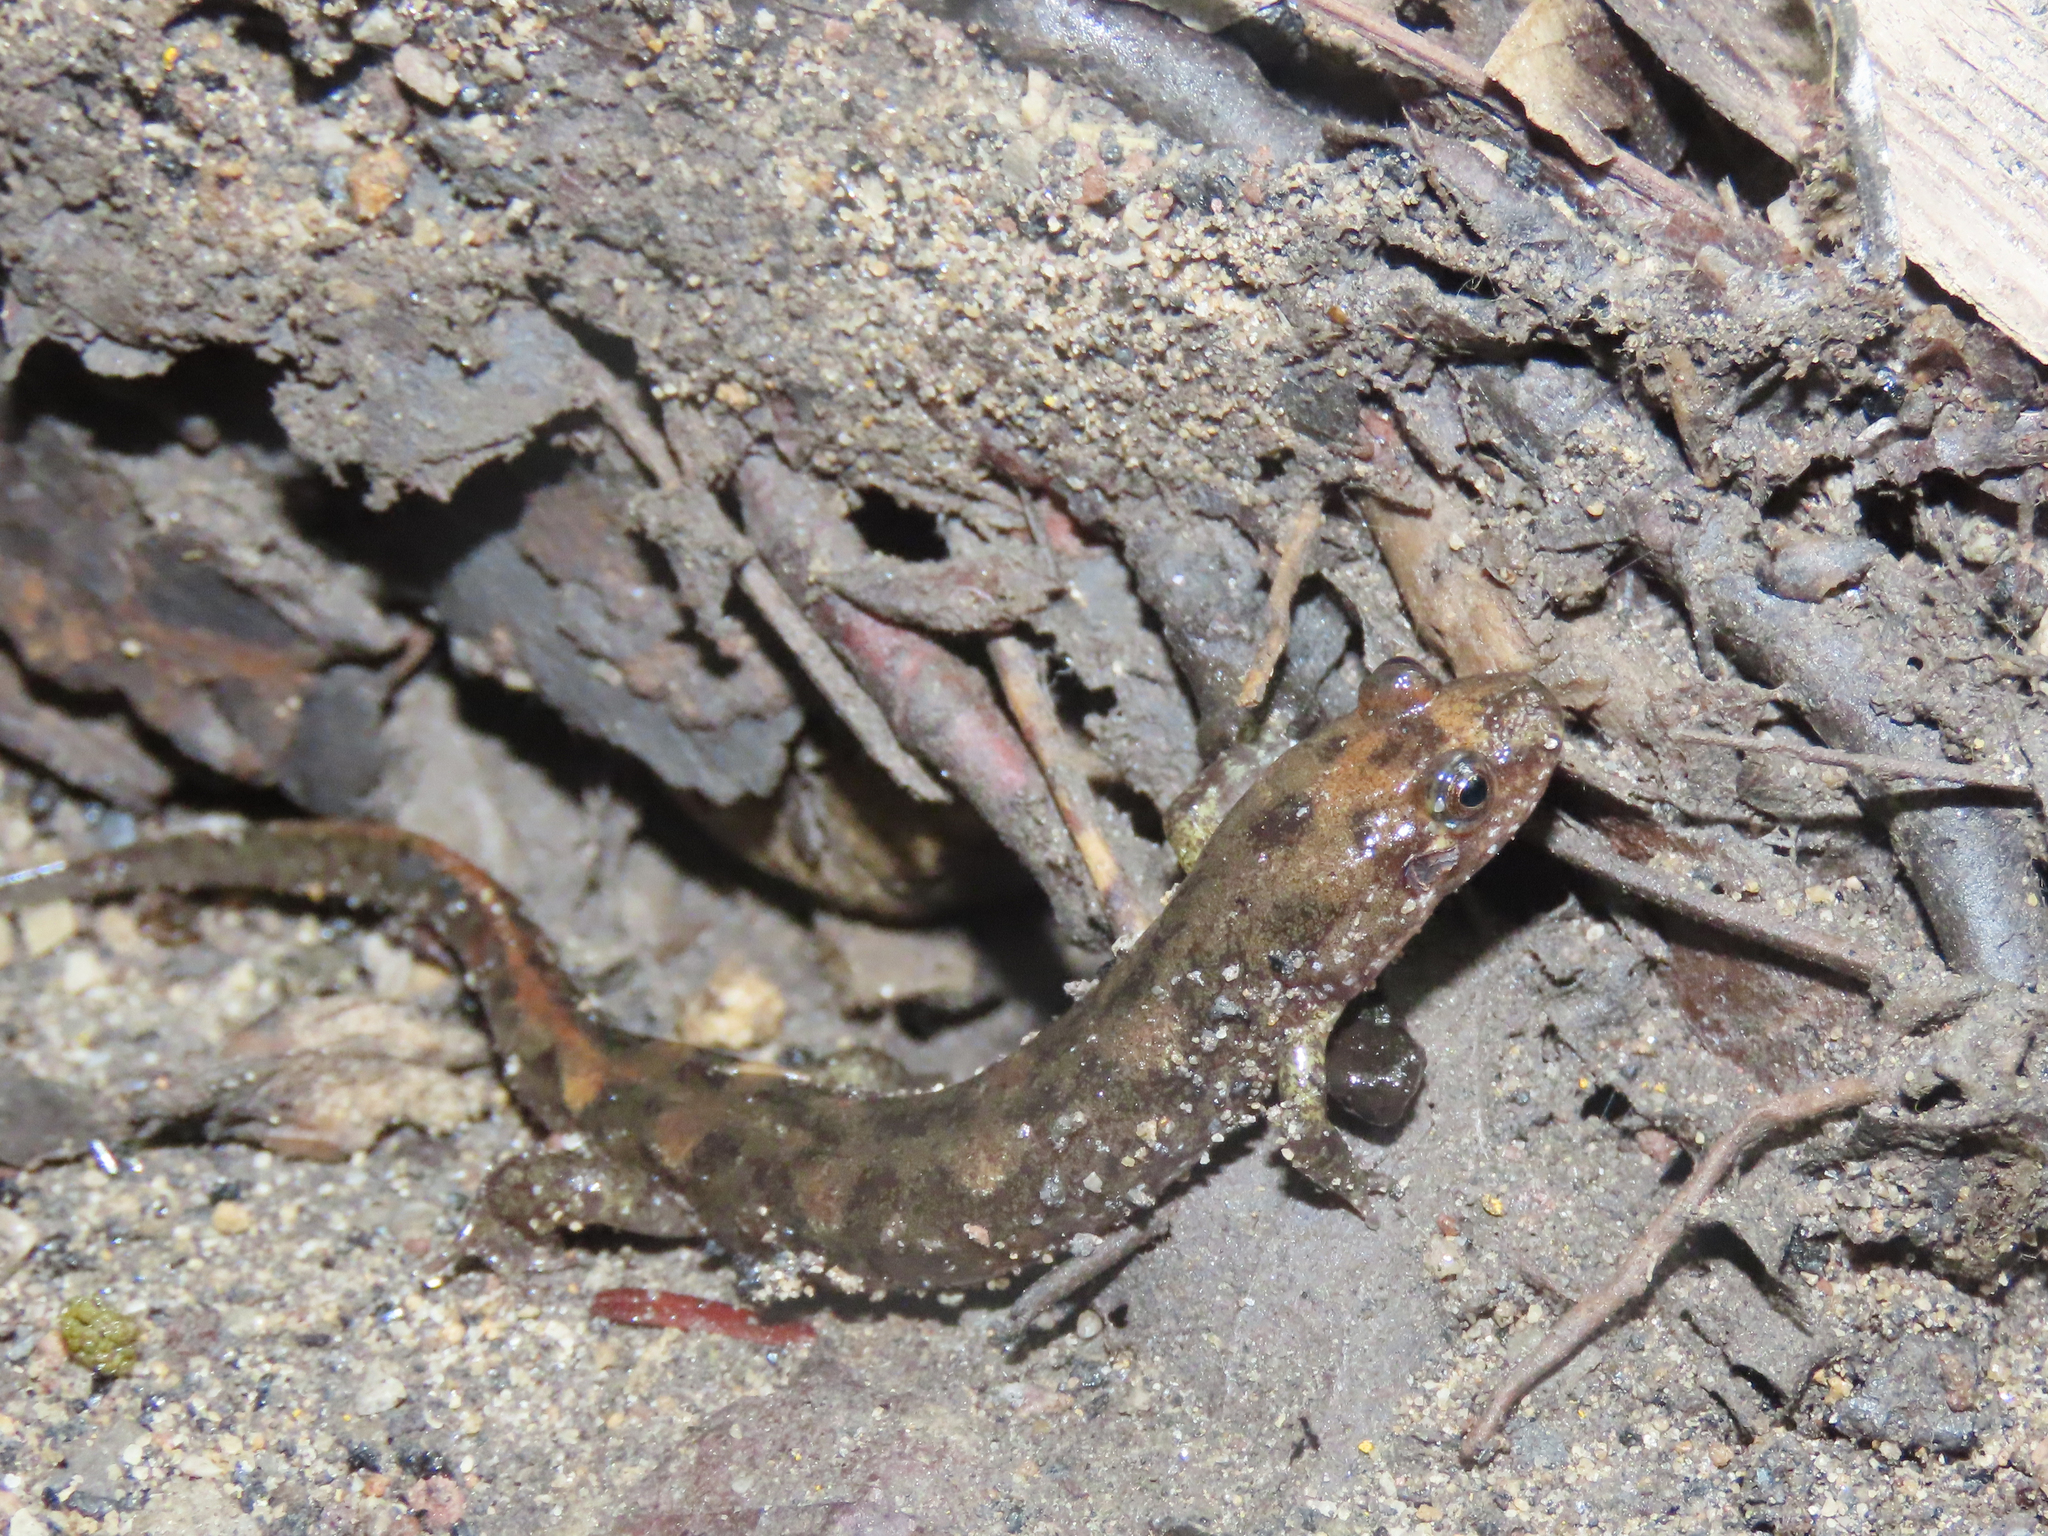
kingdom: Animalia
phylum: Chordata
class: Amphibia
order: Caudata
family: Plethodontidae
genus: Desmognathus
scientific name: Desmognathus monticola
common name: Seal salamander
